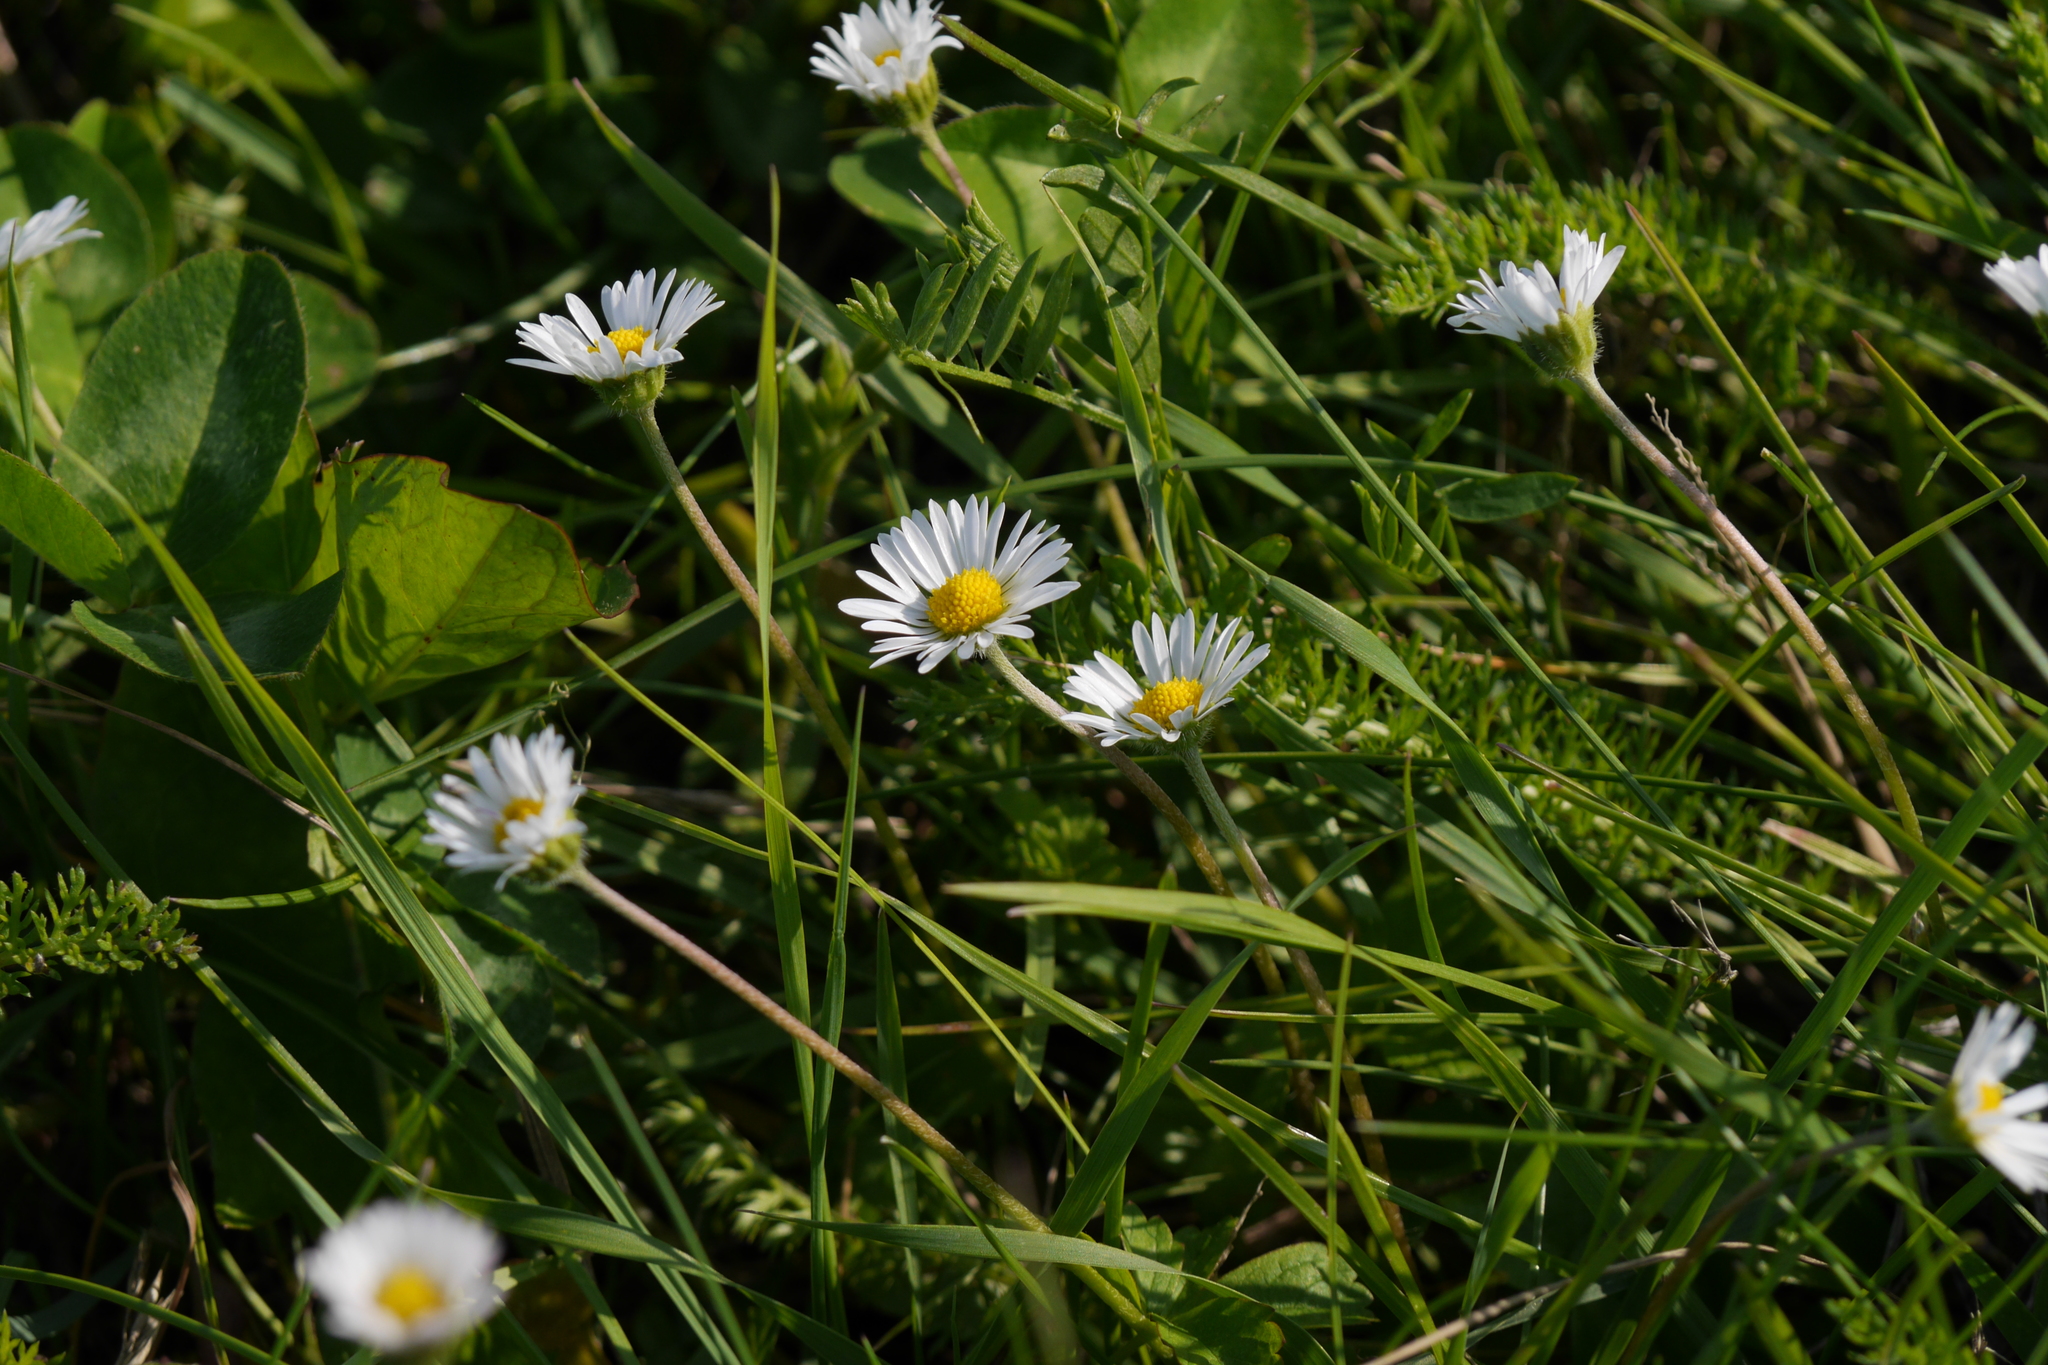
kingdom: Plantae
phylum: Tracheophyta
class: Magnoliopsida
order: Asterales
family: Asteraceae
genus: Bellis
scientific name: Bellis perennis
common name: Lawndaisy
